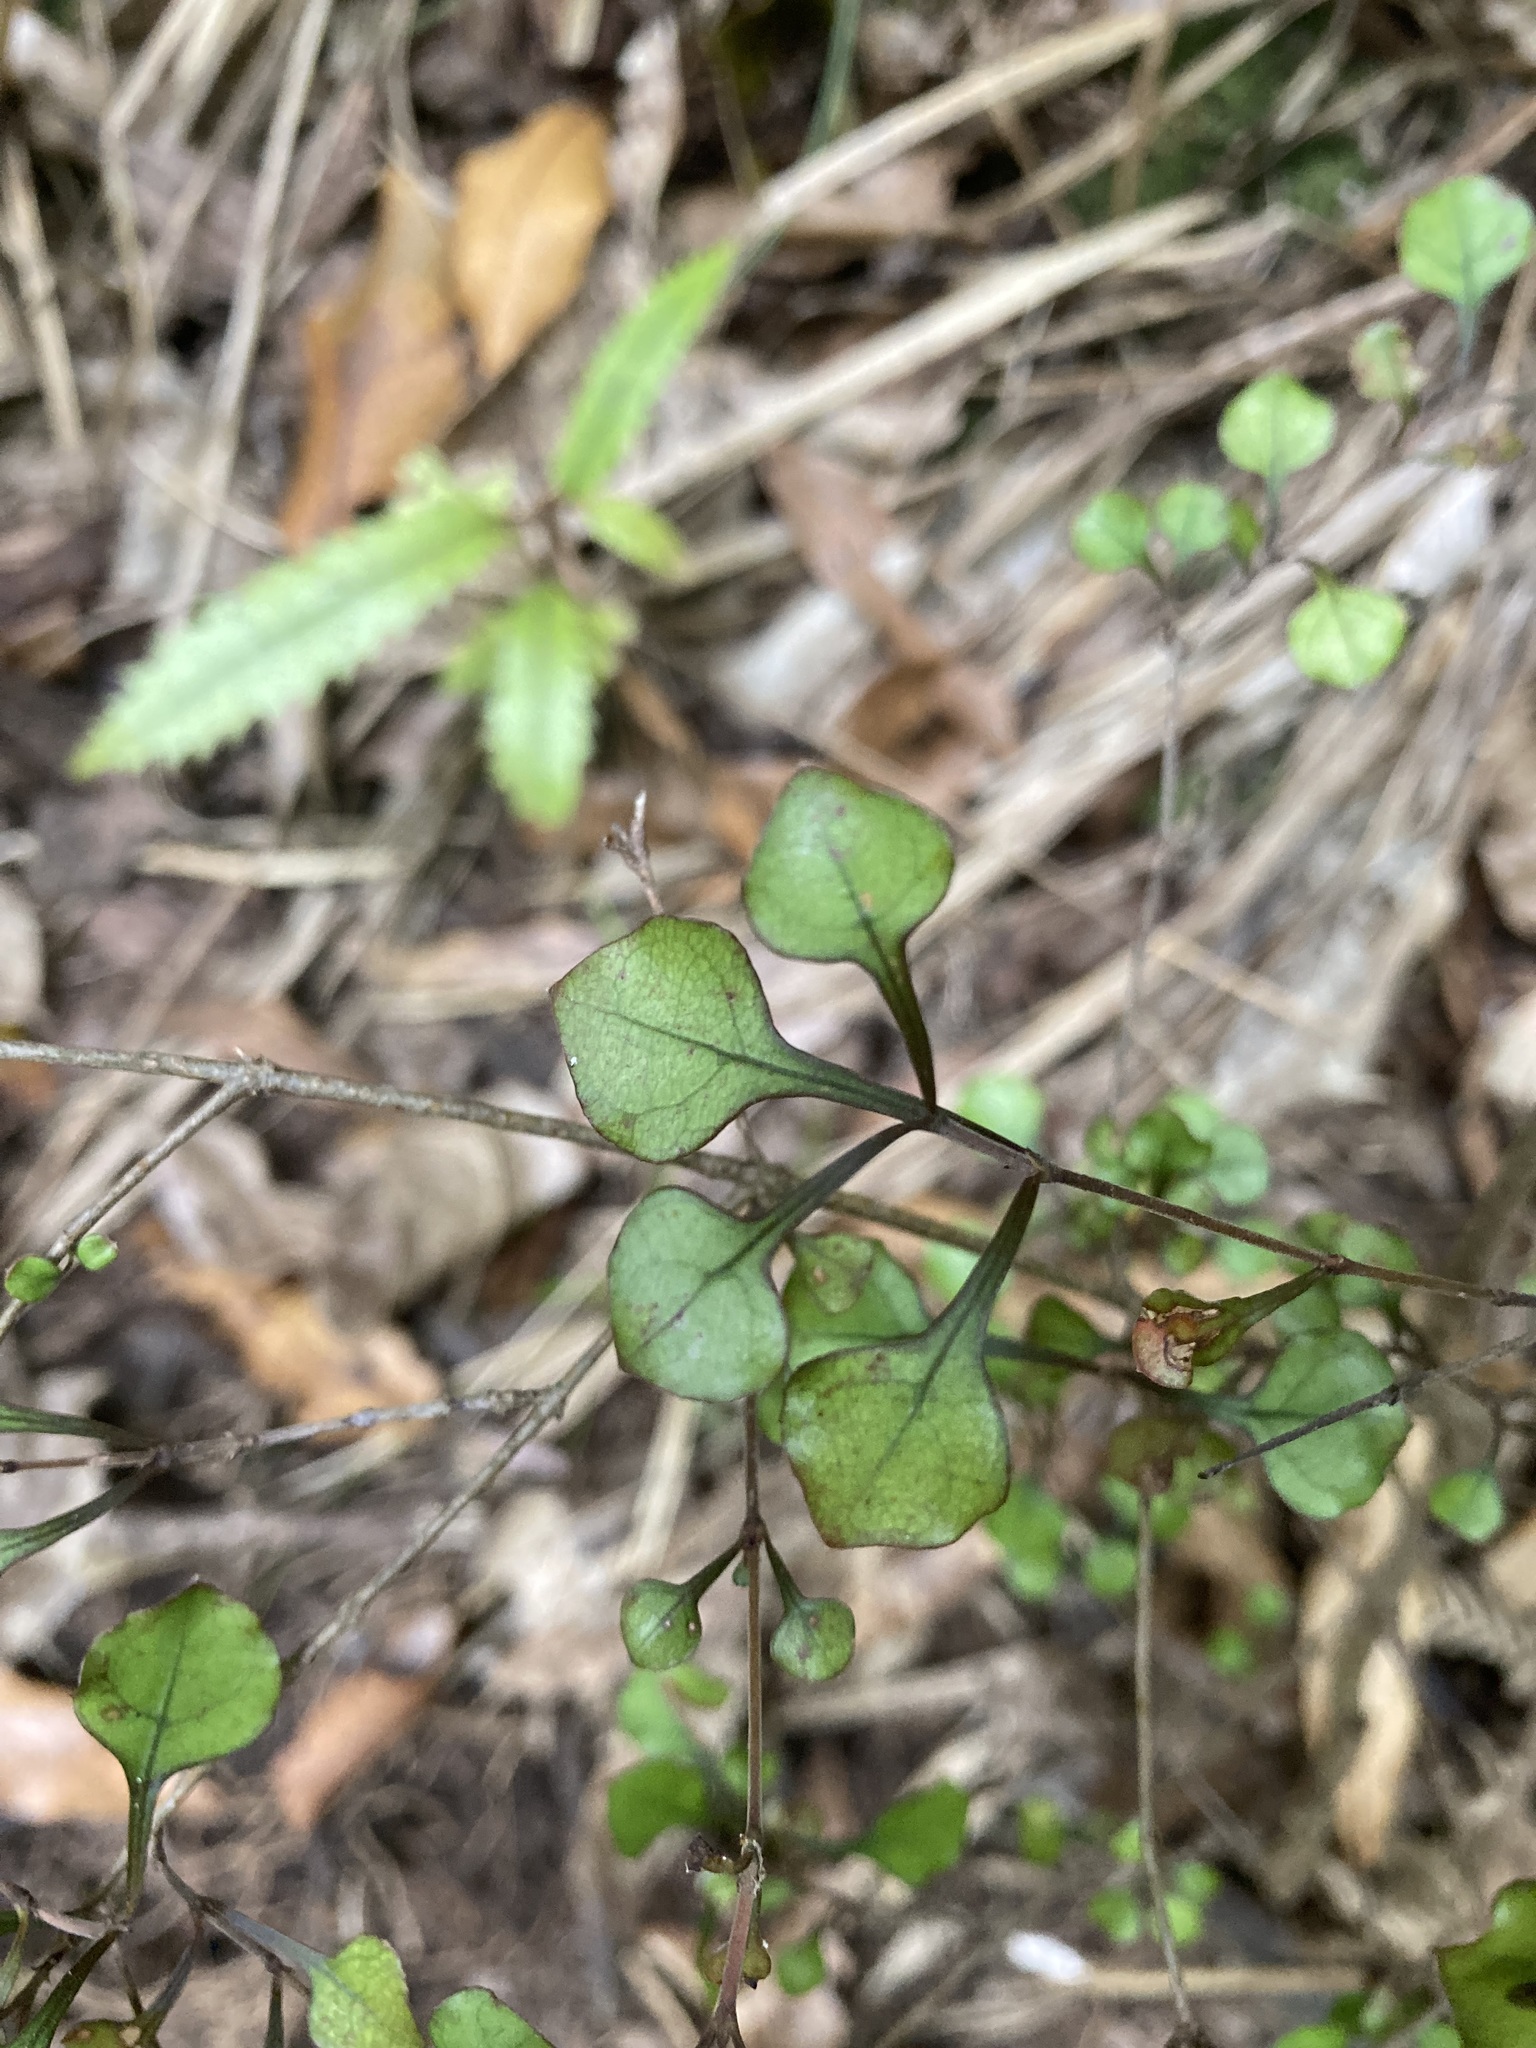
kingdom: Plantae
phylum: Tracheophyta
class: Magnoliopsida
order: Gentianales
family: Rubiaceae
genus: Coprosma
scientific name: Coprosma arborea
